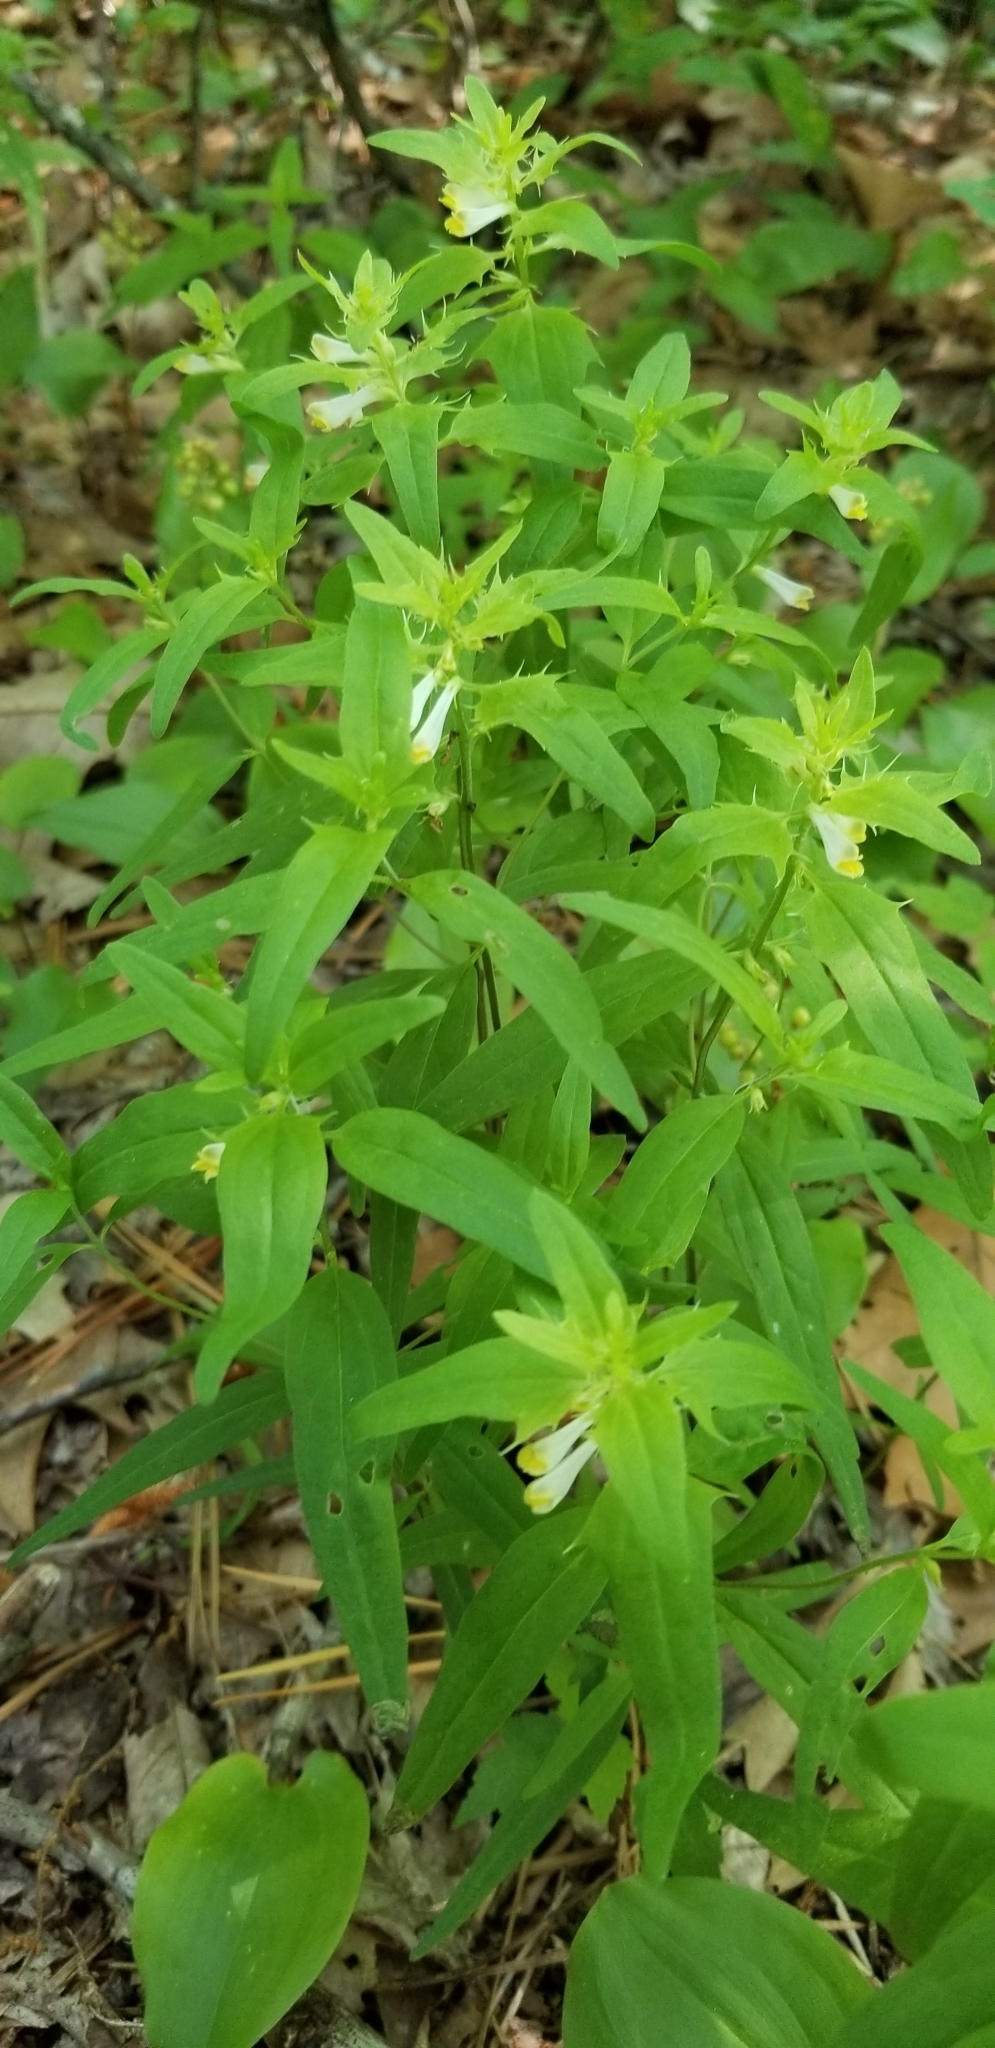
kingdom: Plantae
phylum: Tracheophyta
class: Magnoliopsida
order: Lamiales
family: Orobanchaceae
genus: Melampyrum
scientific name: Melampyrum lineare
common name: American cow-wheat
